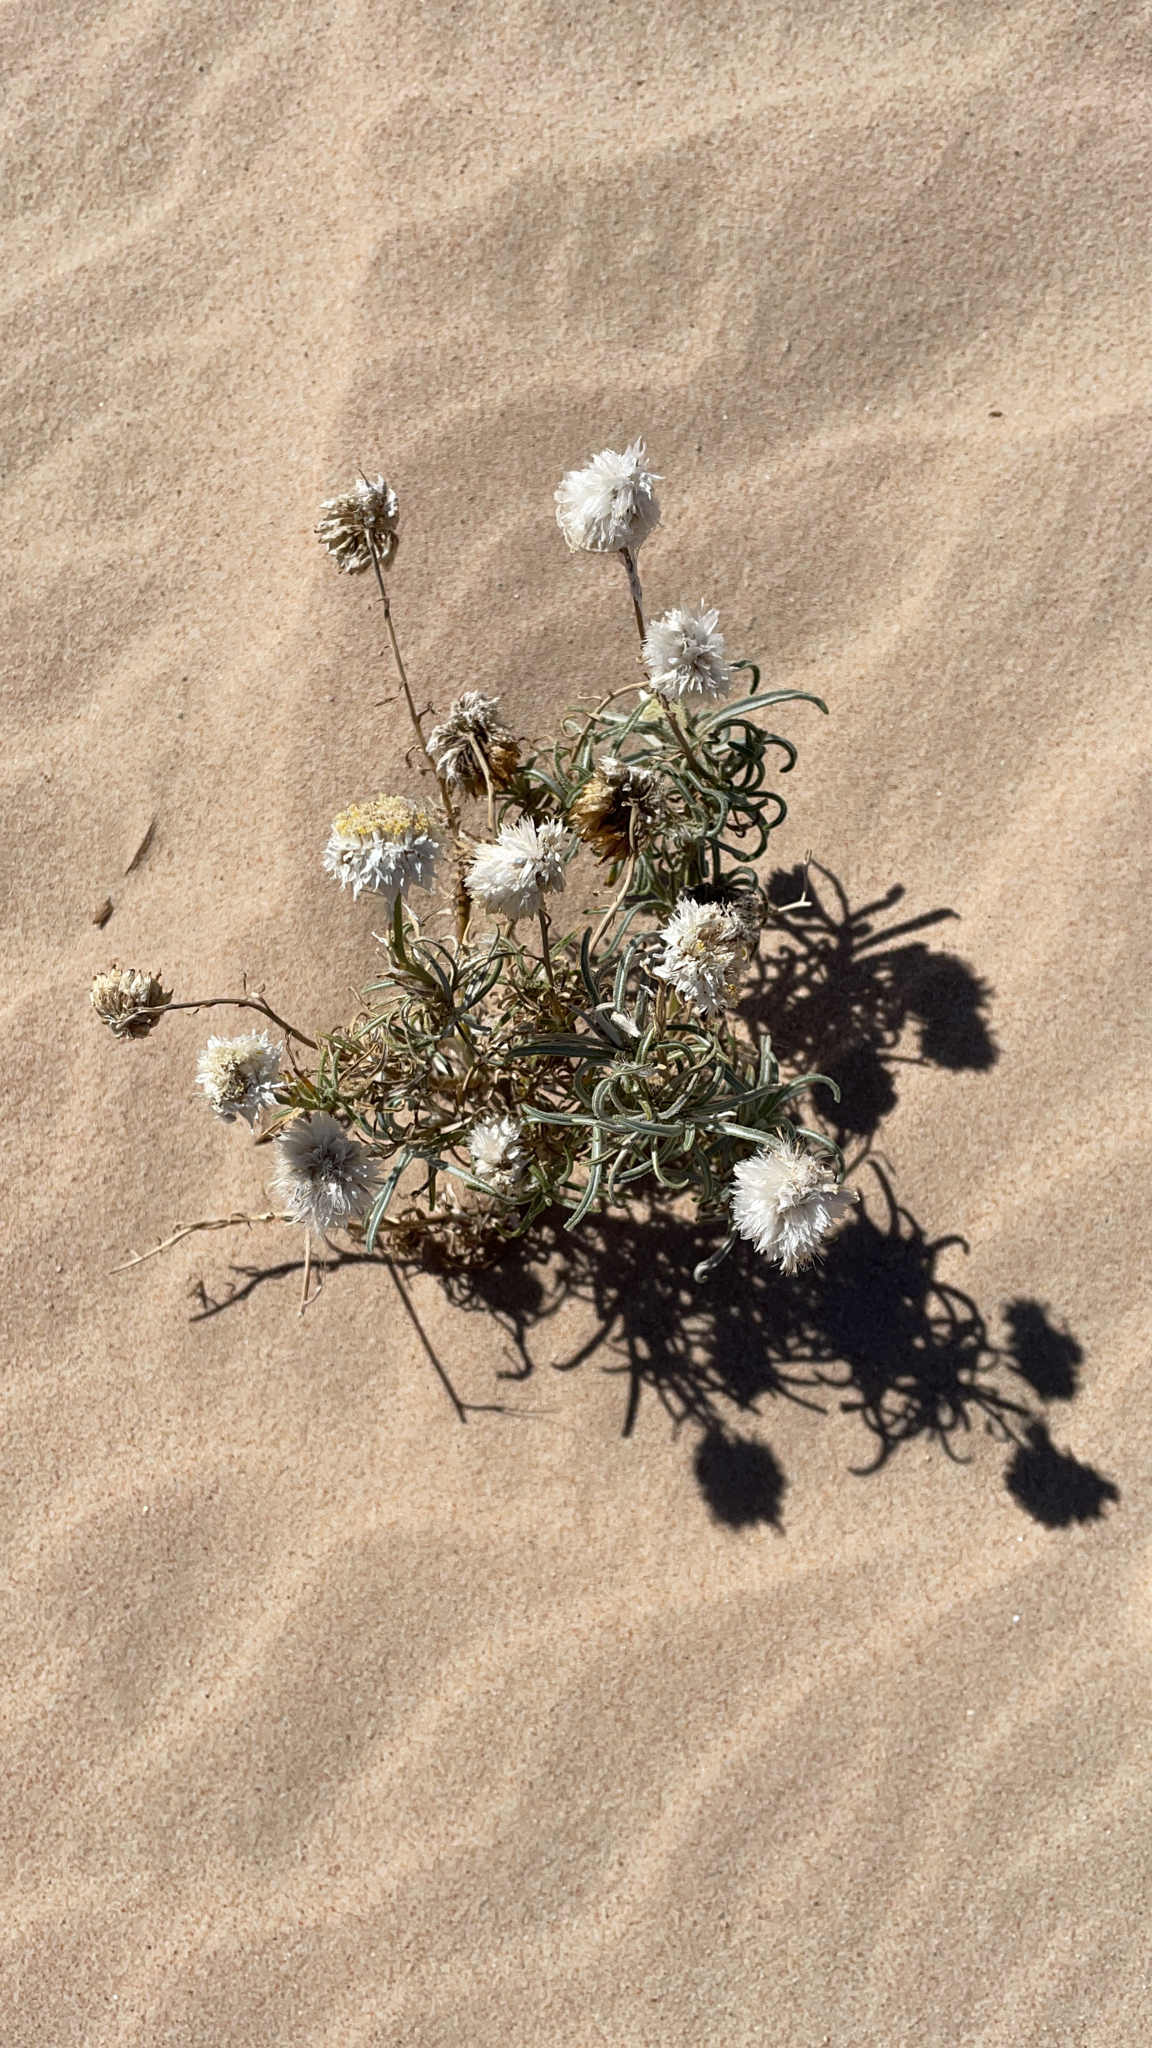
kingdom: Plantae
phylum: Tracheophyta
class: Magnoliopsida
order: Asterales
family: Asteraceae
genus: Polycalymma
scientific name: Polycalymma stuartii
